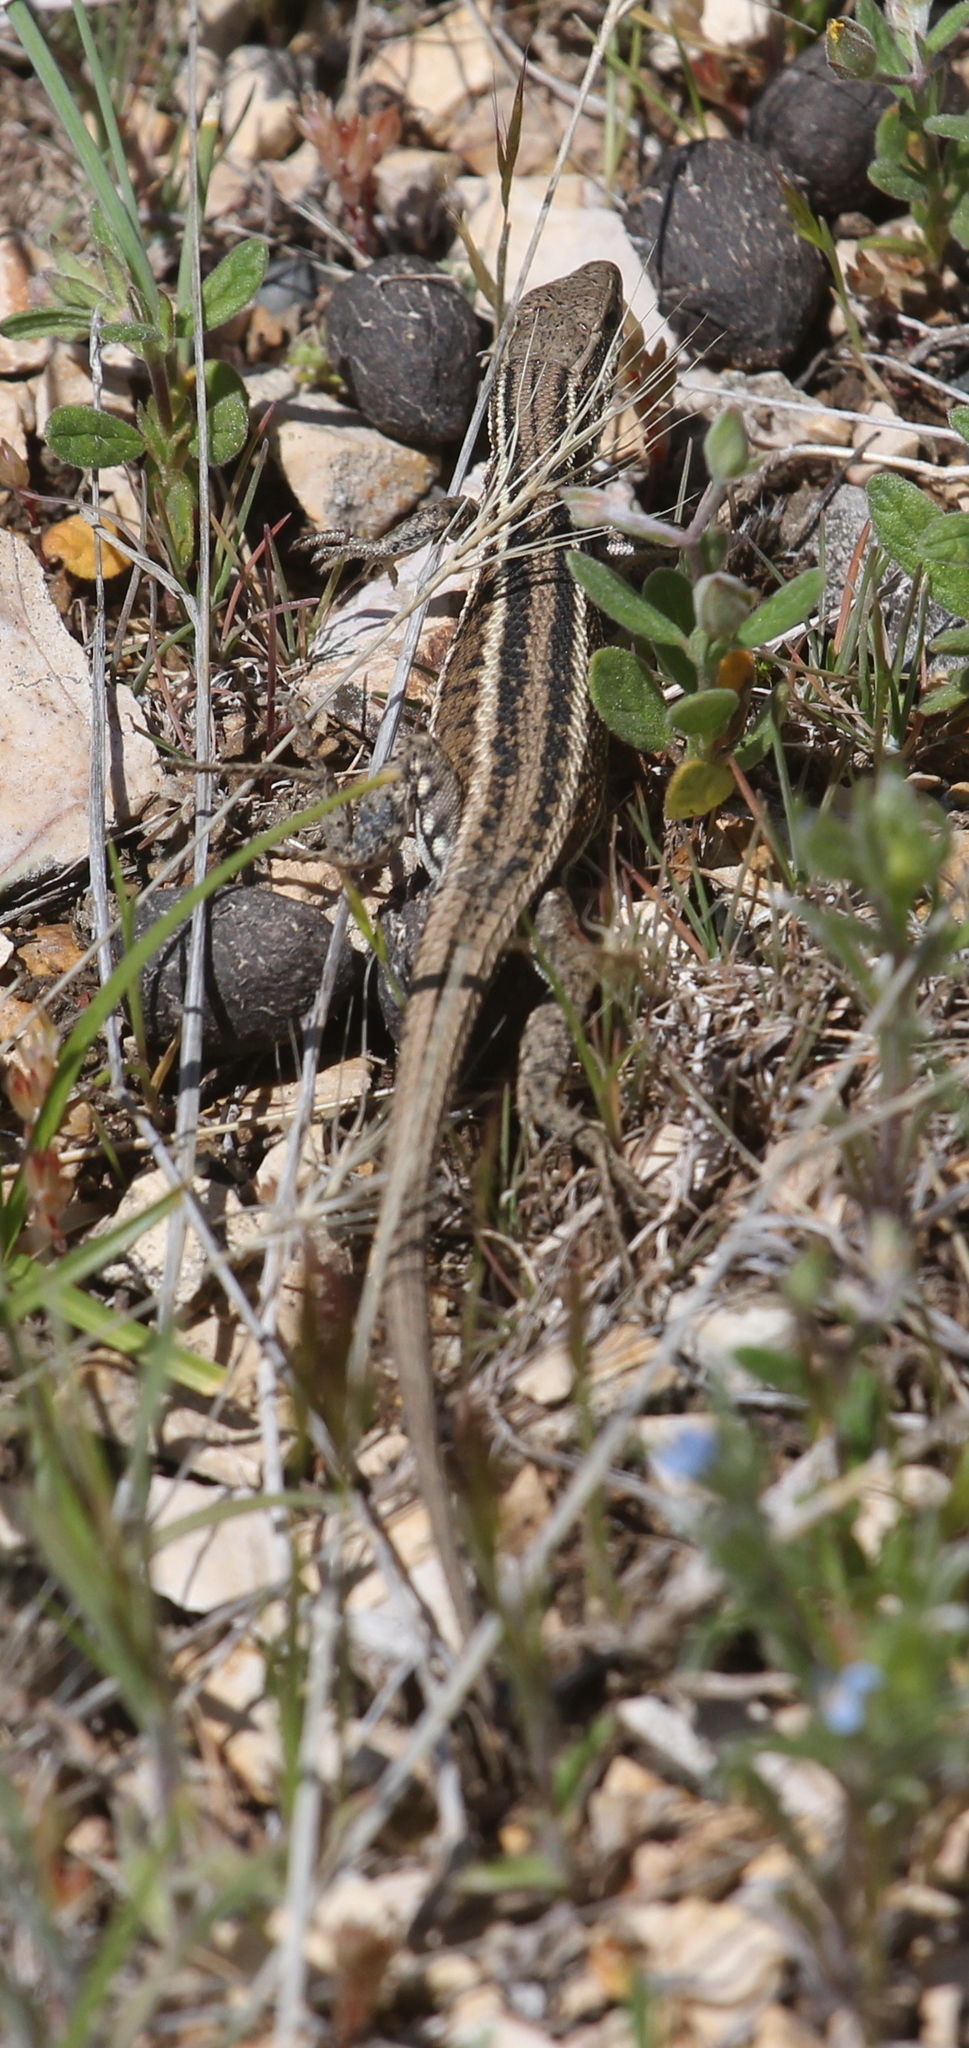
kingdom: Animalia
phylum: Chordata
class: Squamata
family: Lacertidae
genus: Ophisops
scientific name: Ophisops elegans
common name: Snake-eyed lizard
